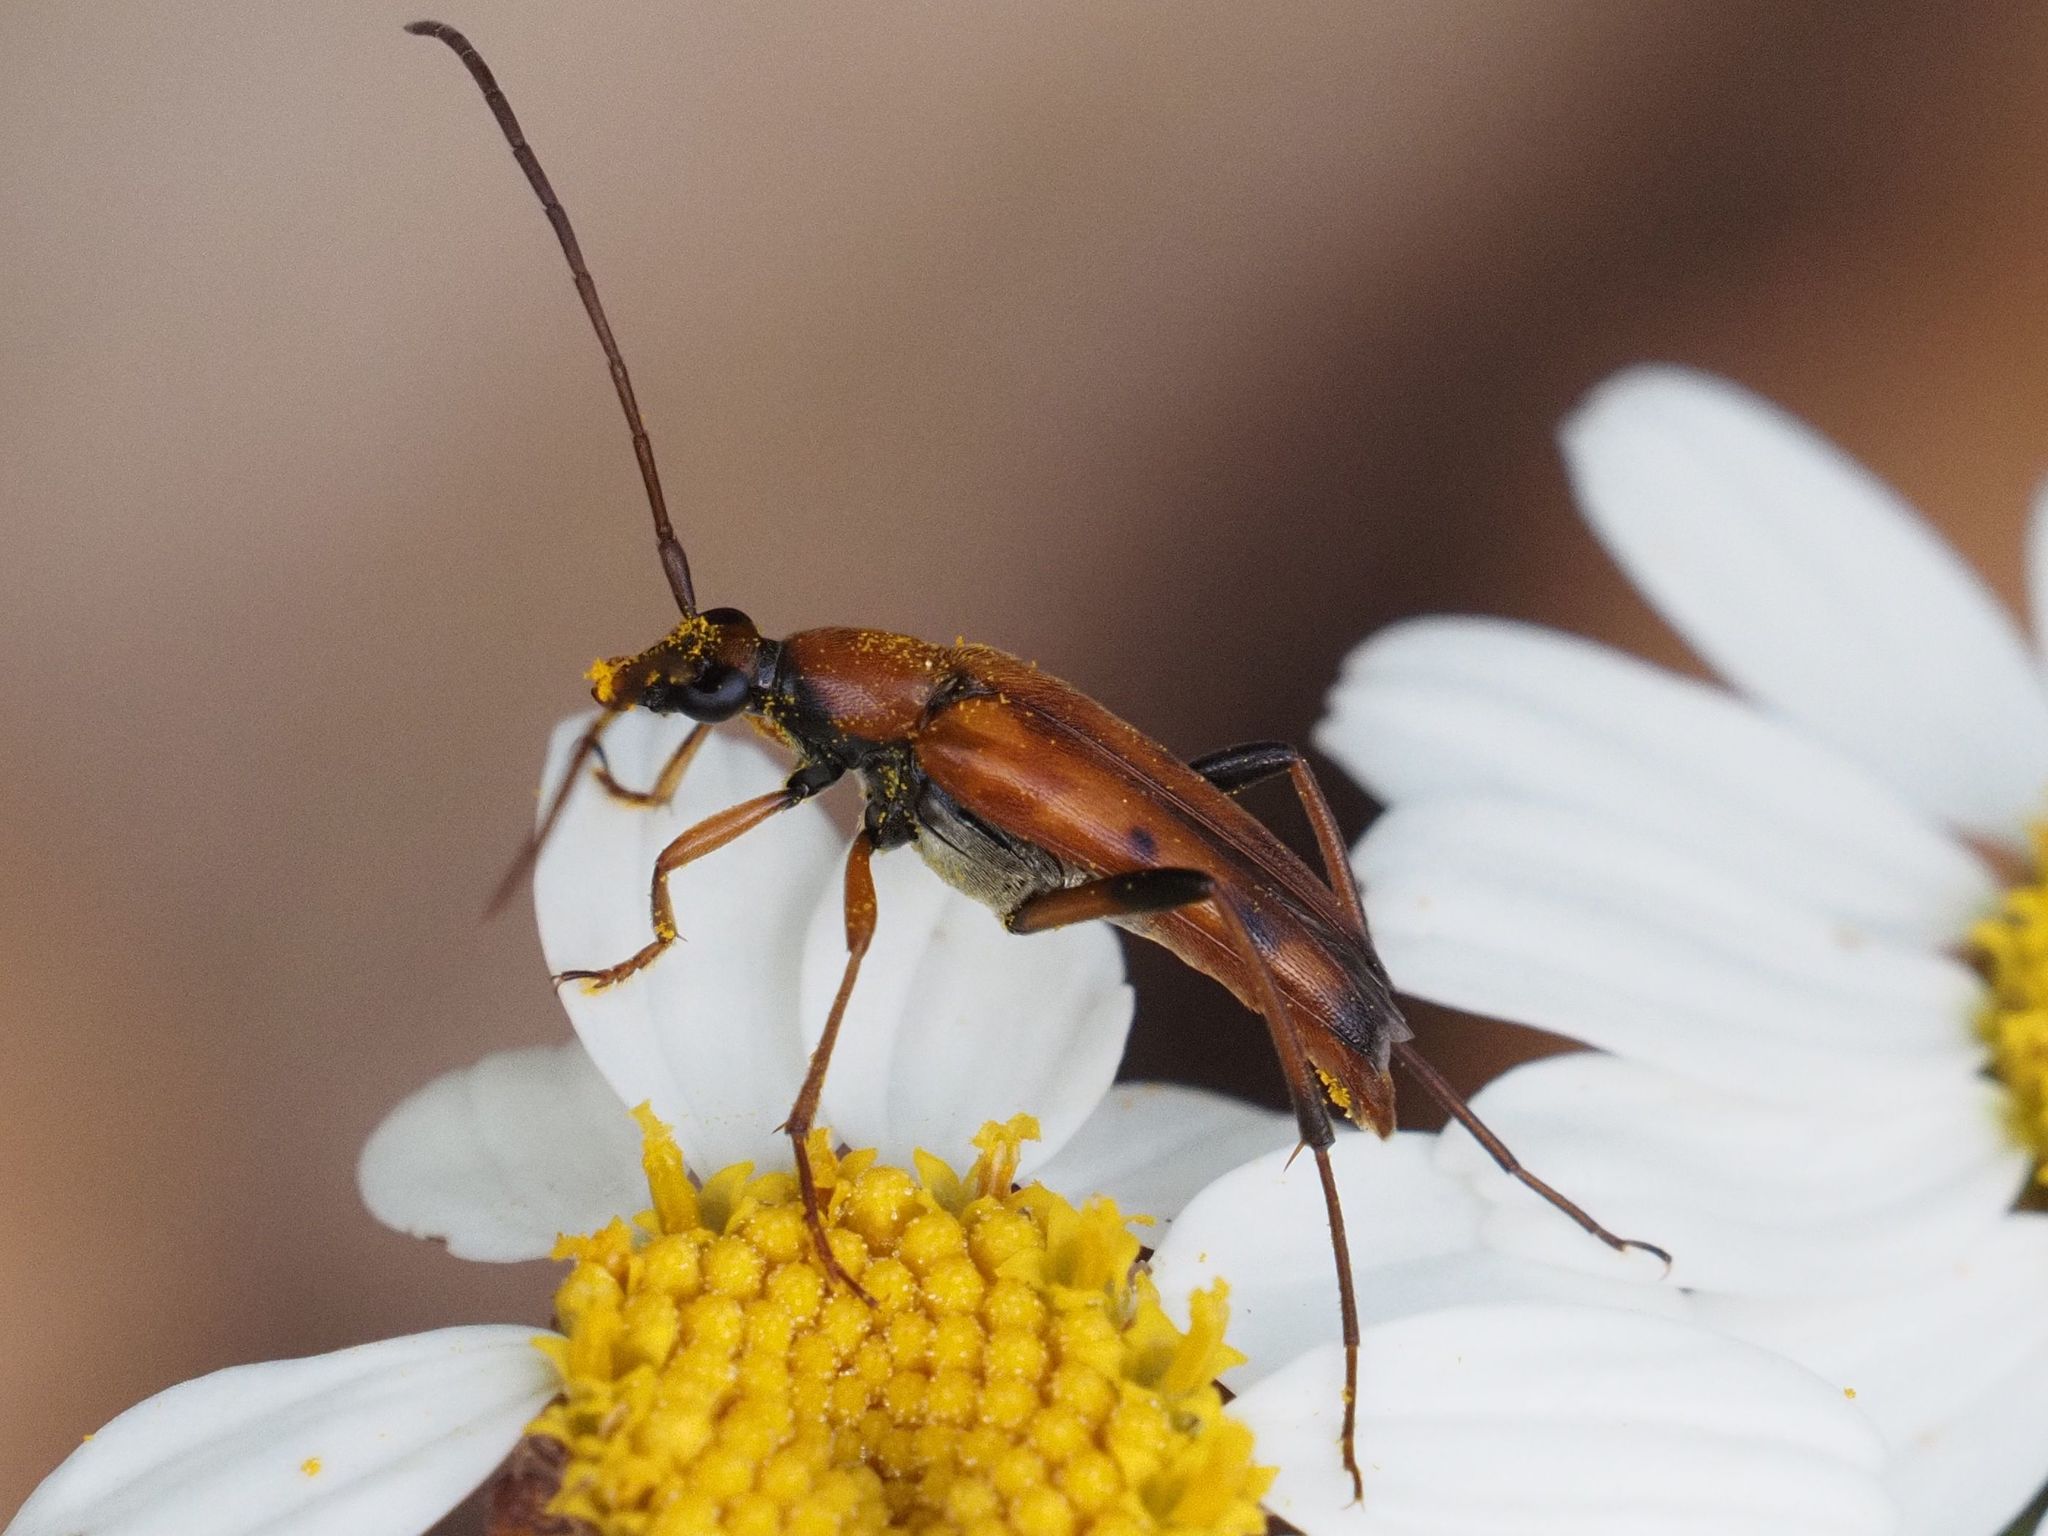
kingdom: Animalia
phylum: Arthropoda
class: Insecta
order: Coleoptera
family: Cerambycidae
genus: Stenurella
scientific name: Stenurella septempunctata
